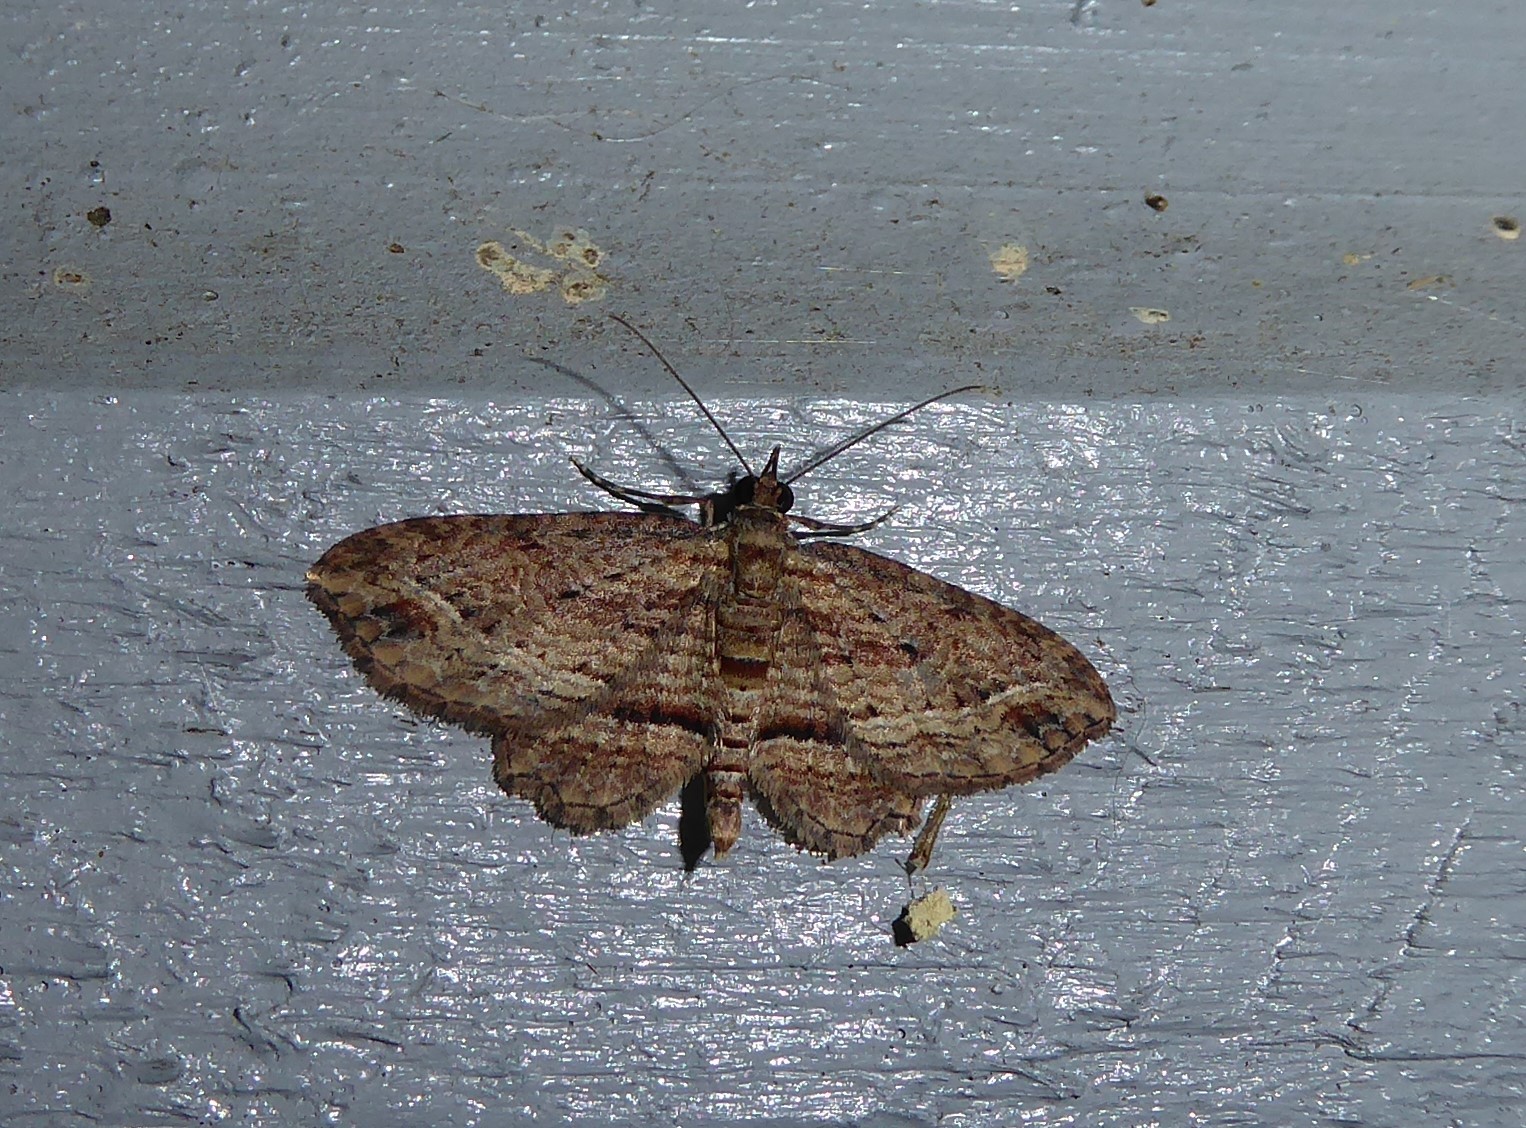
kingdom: Animalia
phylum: Arthropoda
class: Insecta
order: Lepidoptera
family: Geometridae
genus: Chloroclystis
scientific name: Chloroclystis filata
